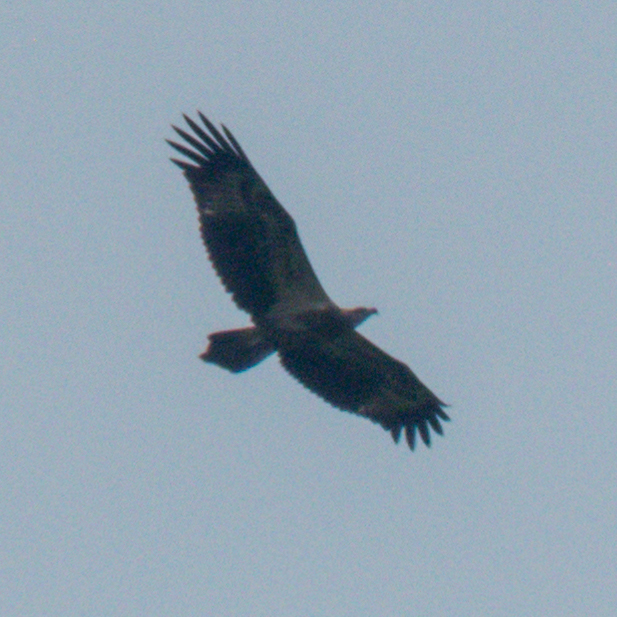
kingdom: Animalia
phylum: Chordata
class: Aves
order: Accipitriformes
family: Accipitridae
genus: Haliaeetus
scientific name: Haliaeetus leucogaster
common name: White-bellied sea eagle
